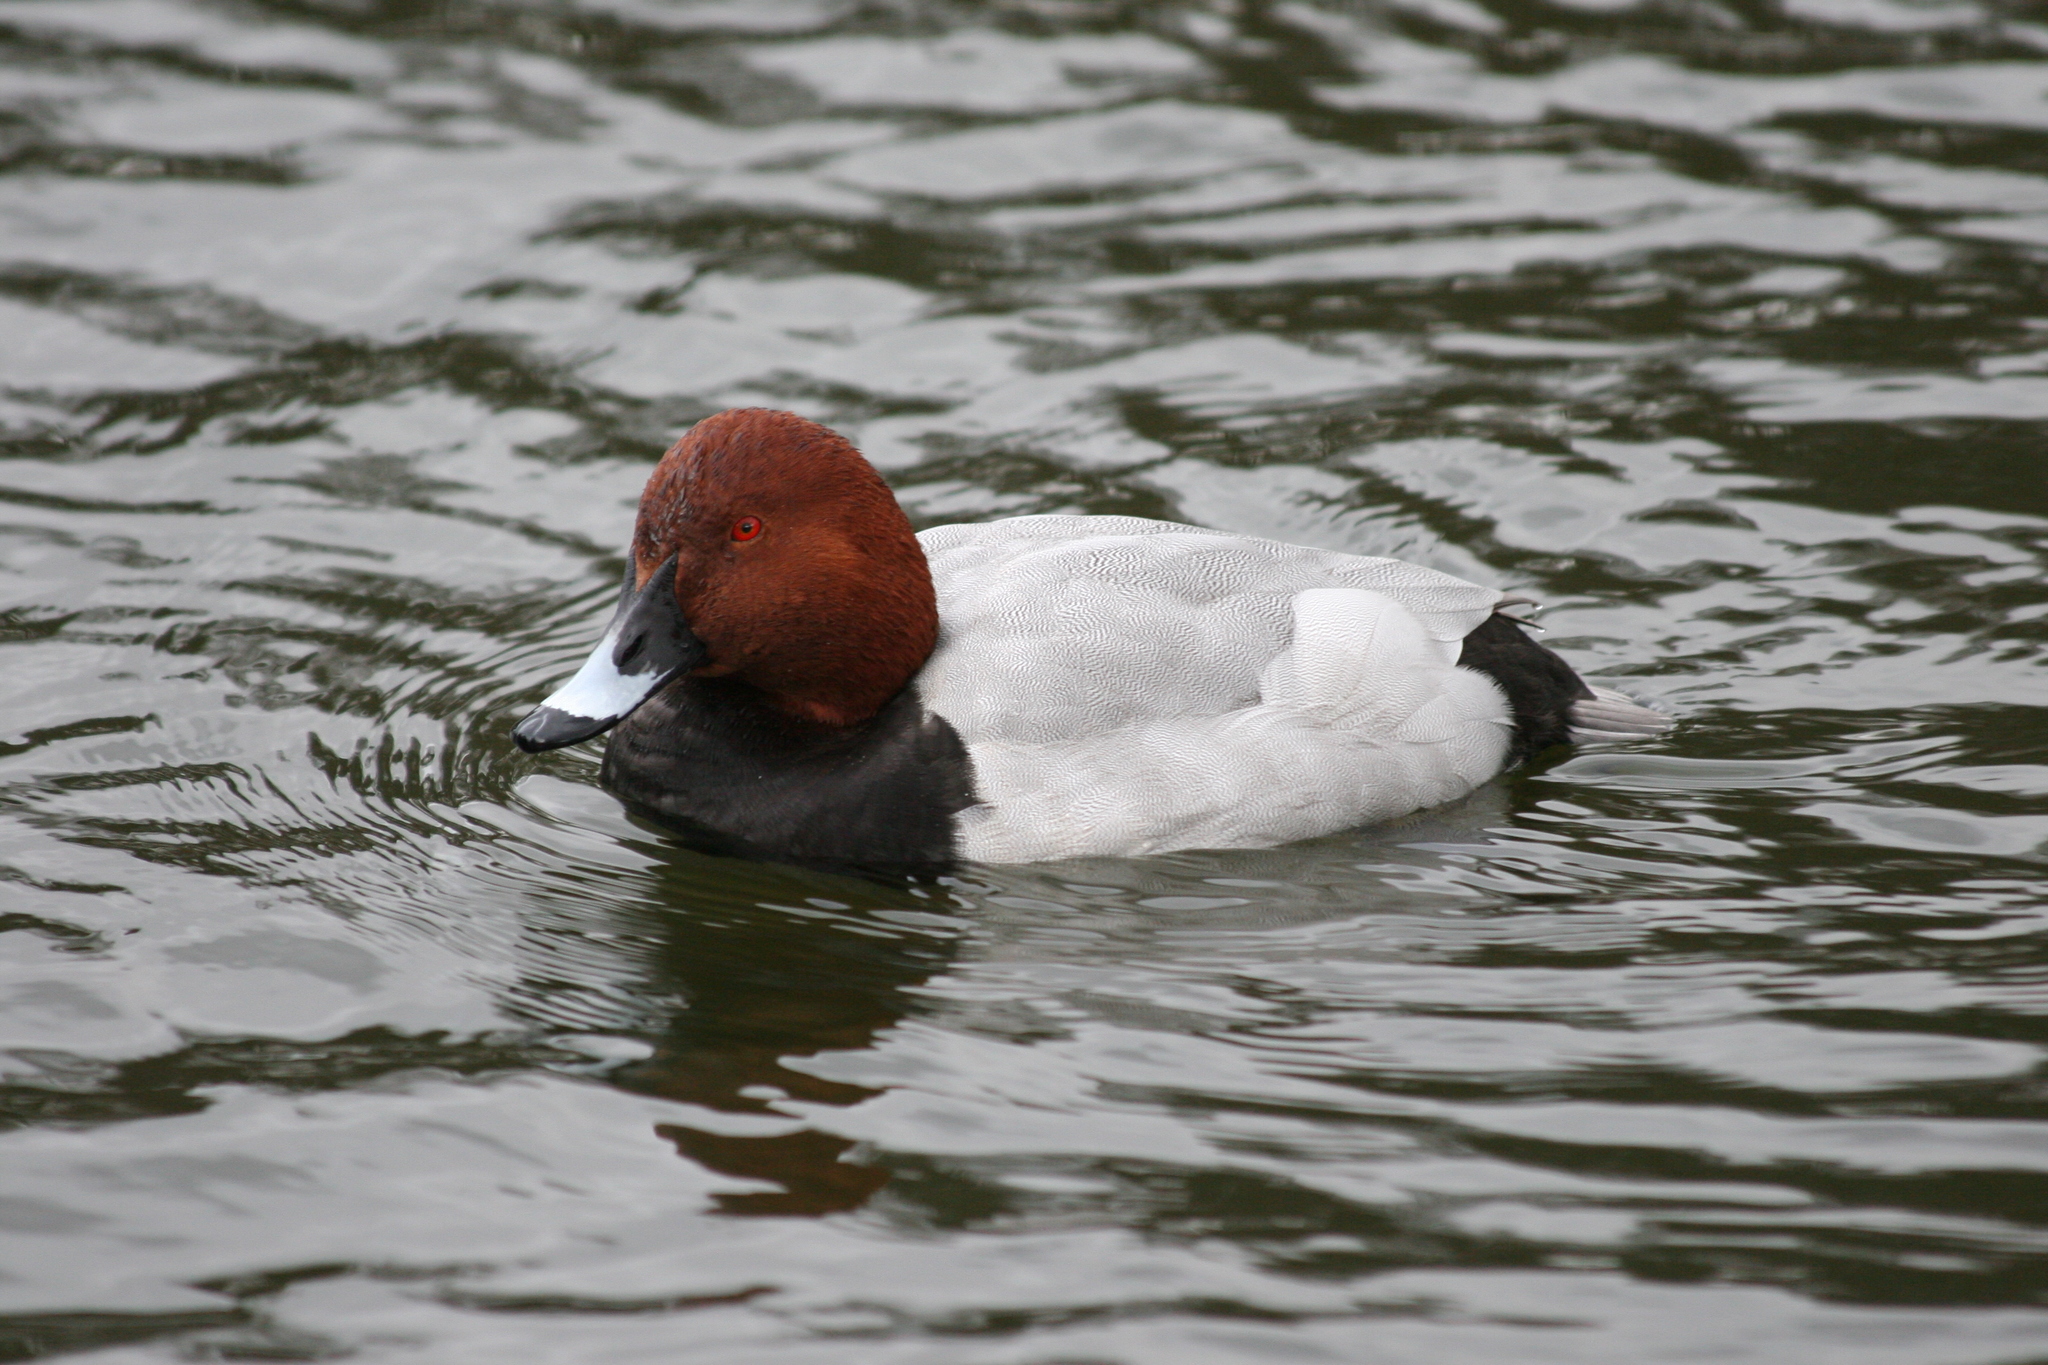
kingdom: Animalia
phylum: Chordata
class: Aves
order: Anseriformes
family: Anatidae
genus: Aythya
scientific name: Aythya ferina
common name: Common pochard
